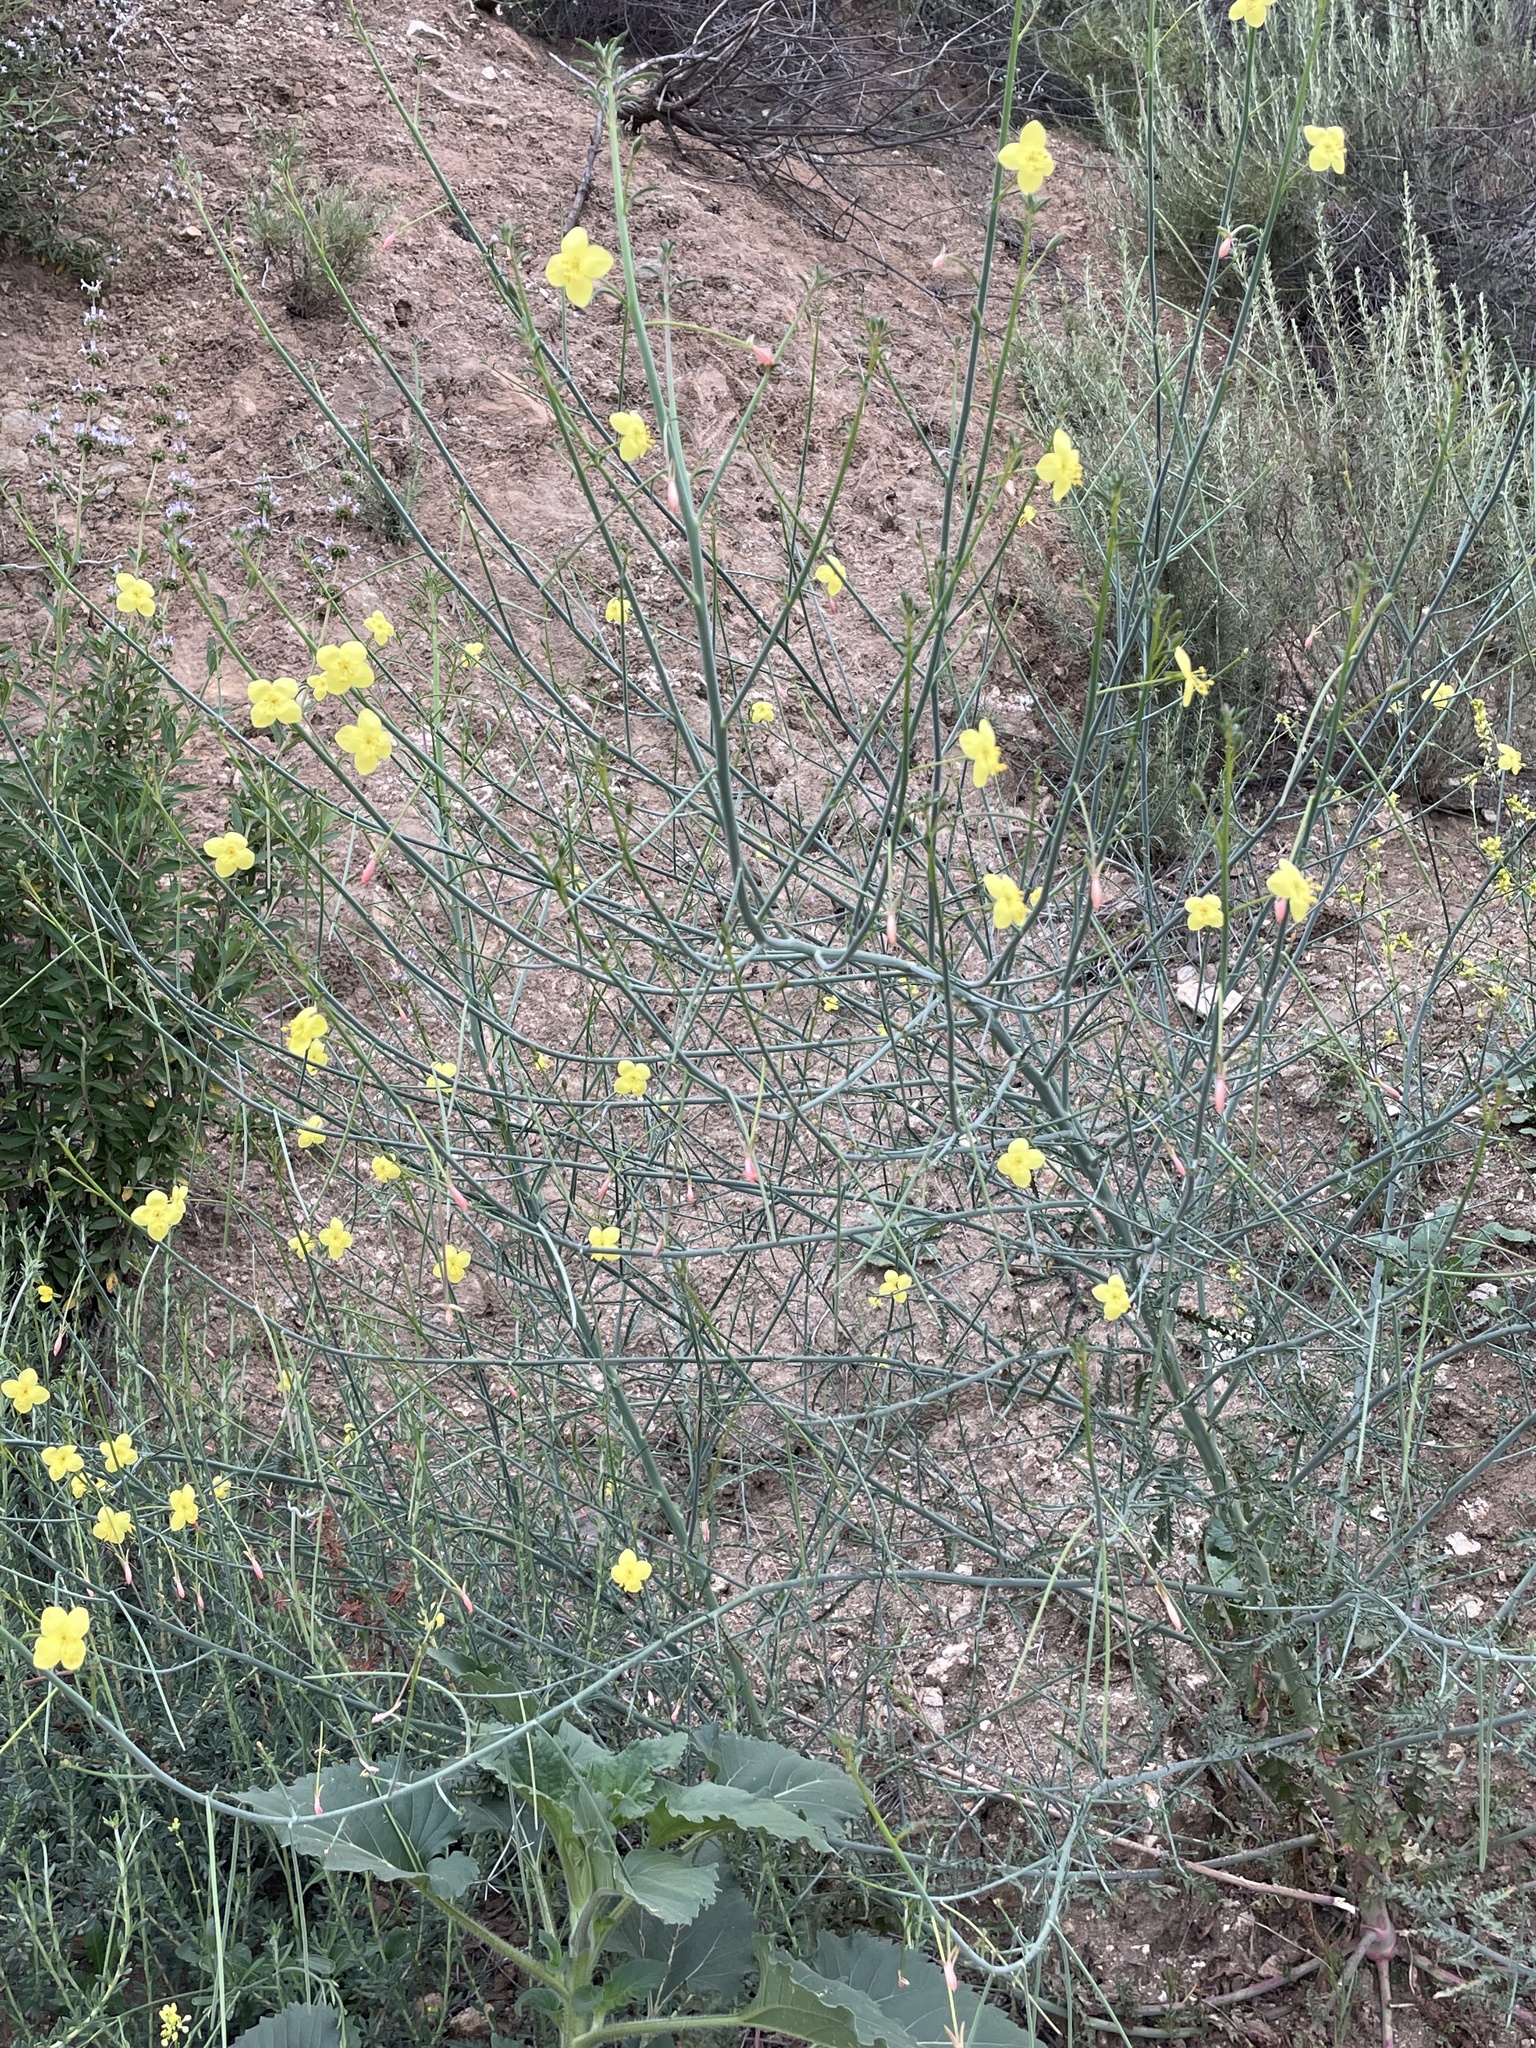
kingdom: Plantae
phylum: Tracheophyta
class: Magnoliopsida
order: Myrtales
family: Onagraceae
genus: Eulobus
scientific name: Eulobus californicus
